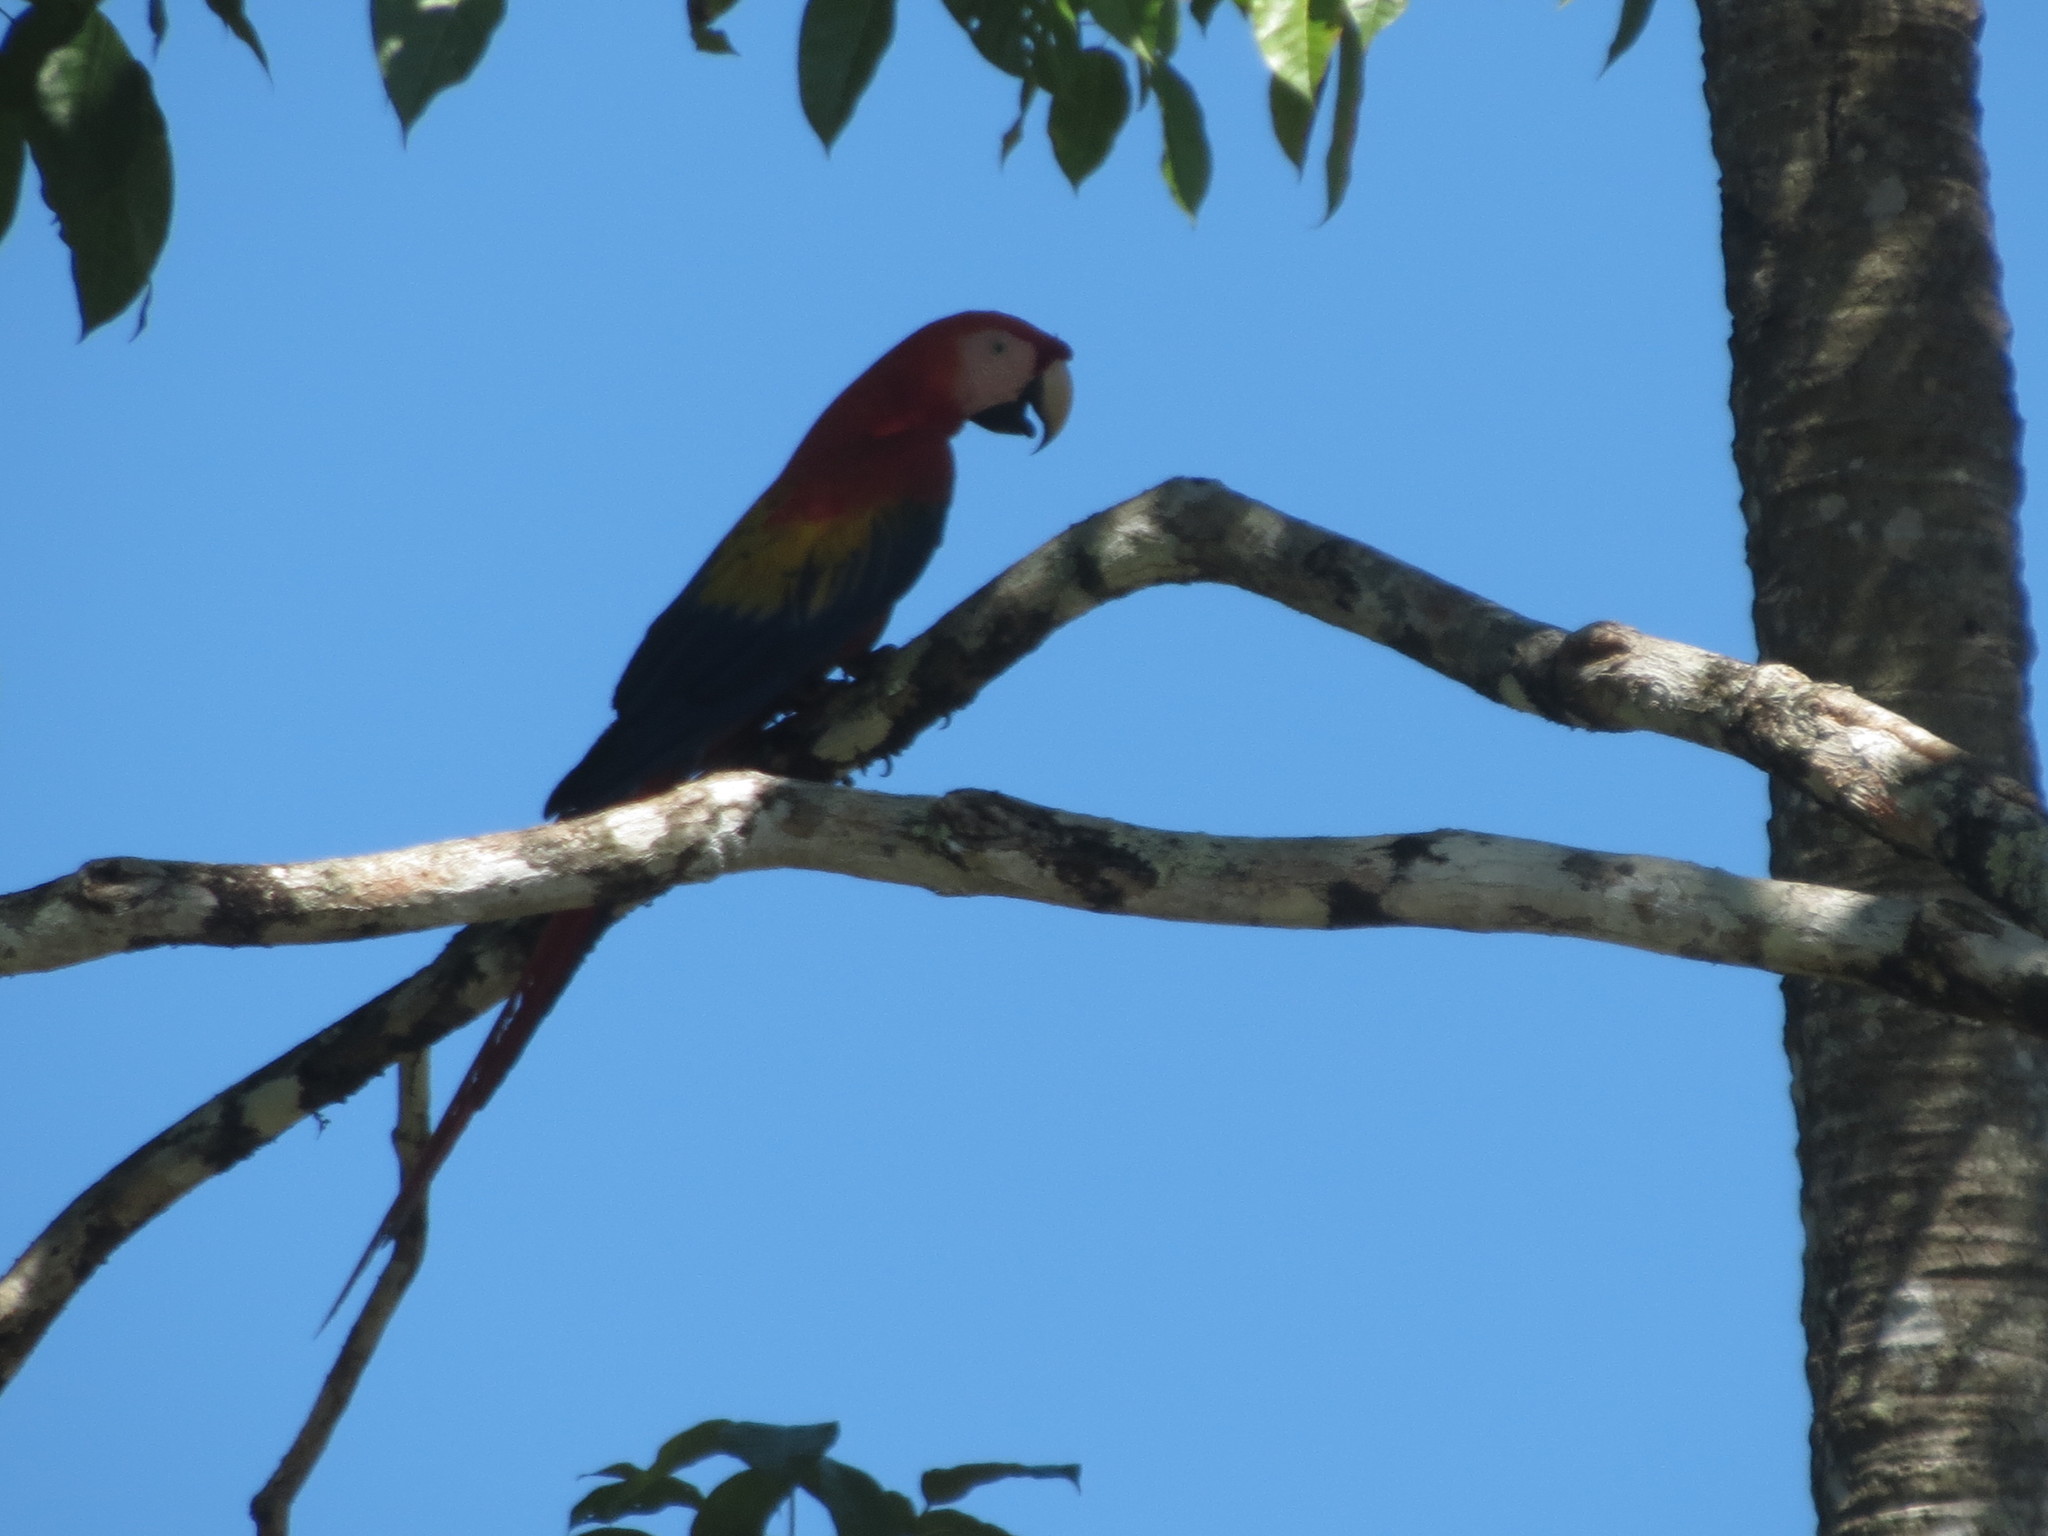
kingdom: Animalia
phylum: Chordata
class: Aves
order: Psittaciformes
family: Psittacidae
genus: Ara
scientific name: Ara macao
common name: Scarlet macaw
